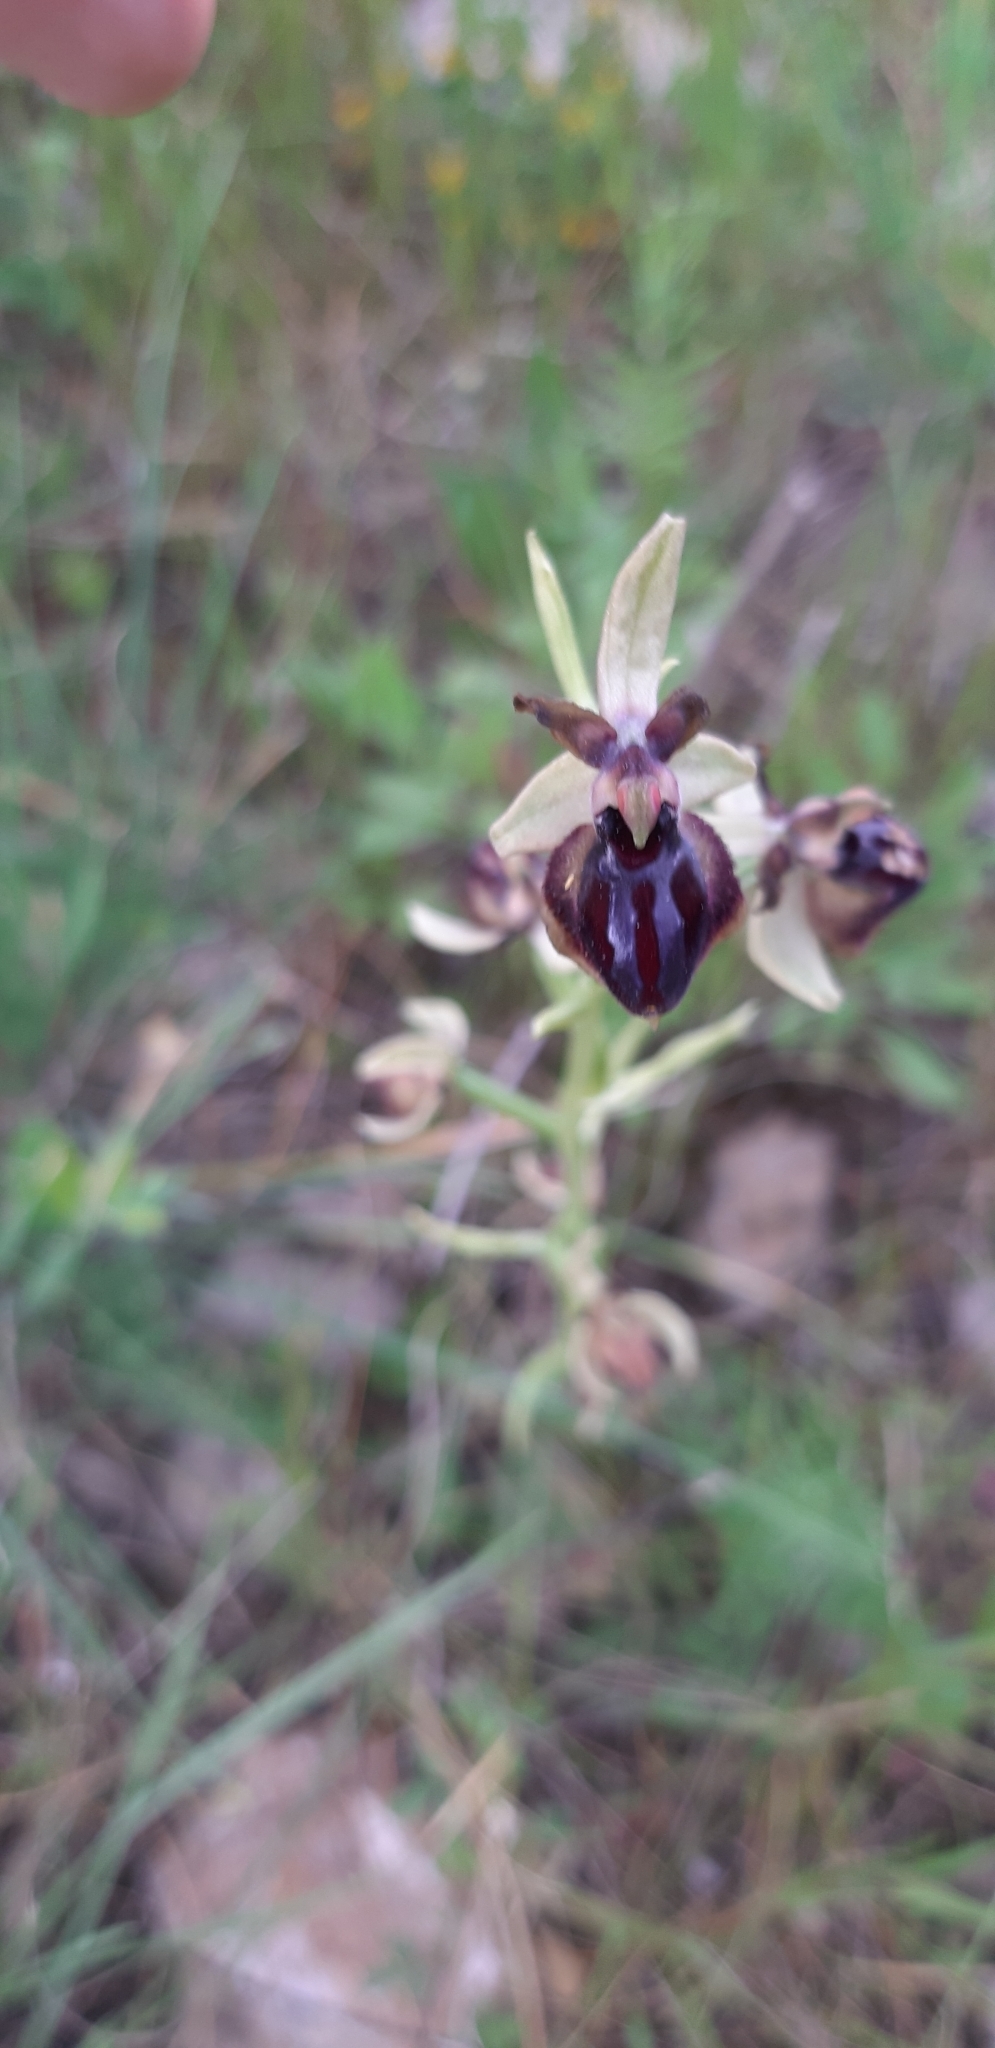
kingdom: Plantae
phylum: Tracheophyta
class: Liliopsida
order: Asparagales
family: Orchidaceae
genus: Ophrys
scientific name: Ophrys sphegodes
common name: Early spider-orchid
